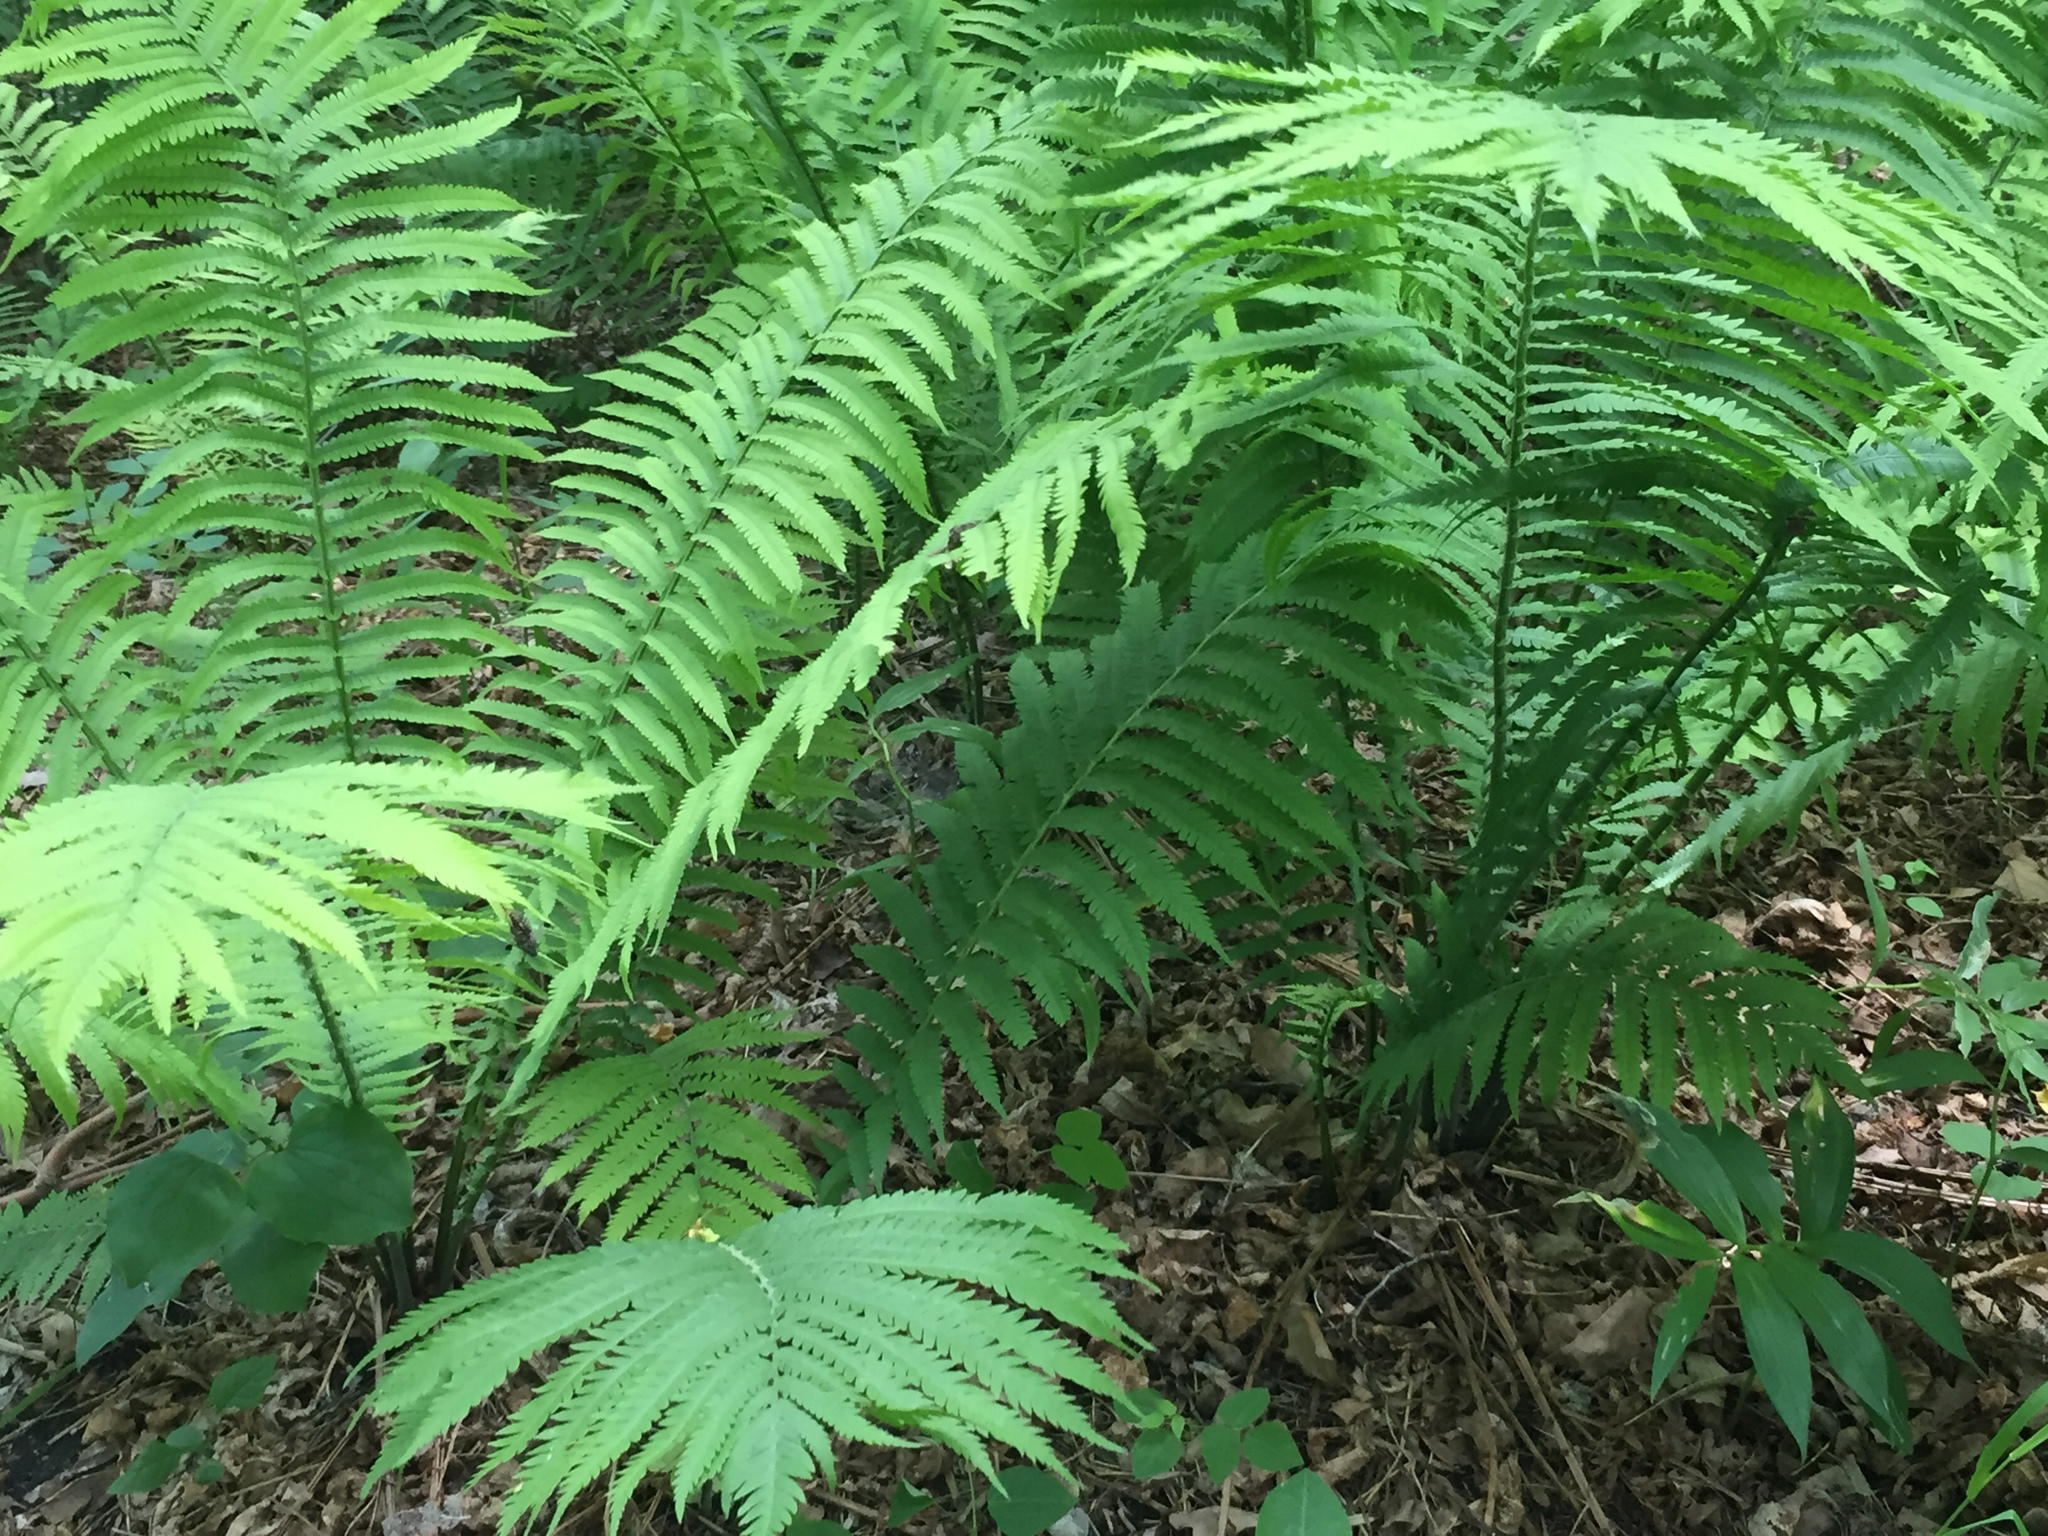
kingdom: Plantae
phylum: Tracheophyta
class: Polypodiopsida
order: Polypodiales
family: Onocleaceae
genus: Matteuccia
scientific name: Matteuccia struthiopteris
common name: Ostrich fern
